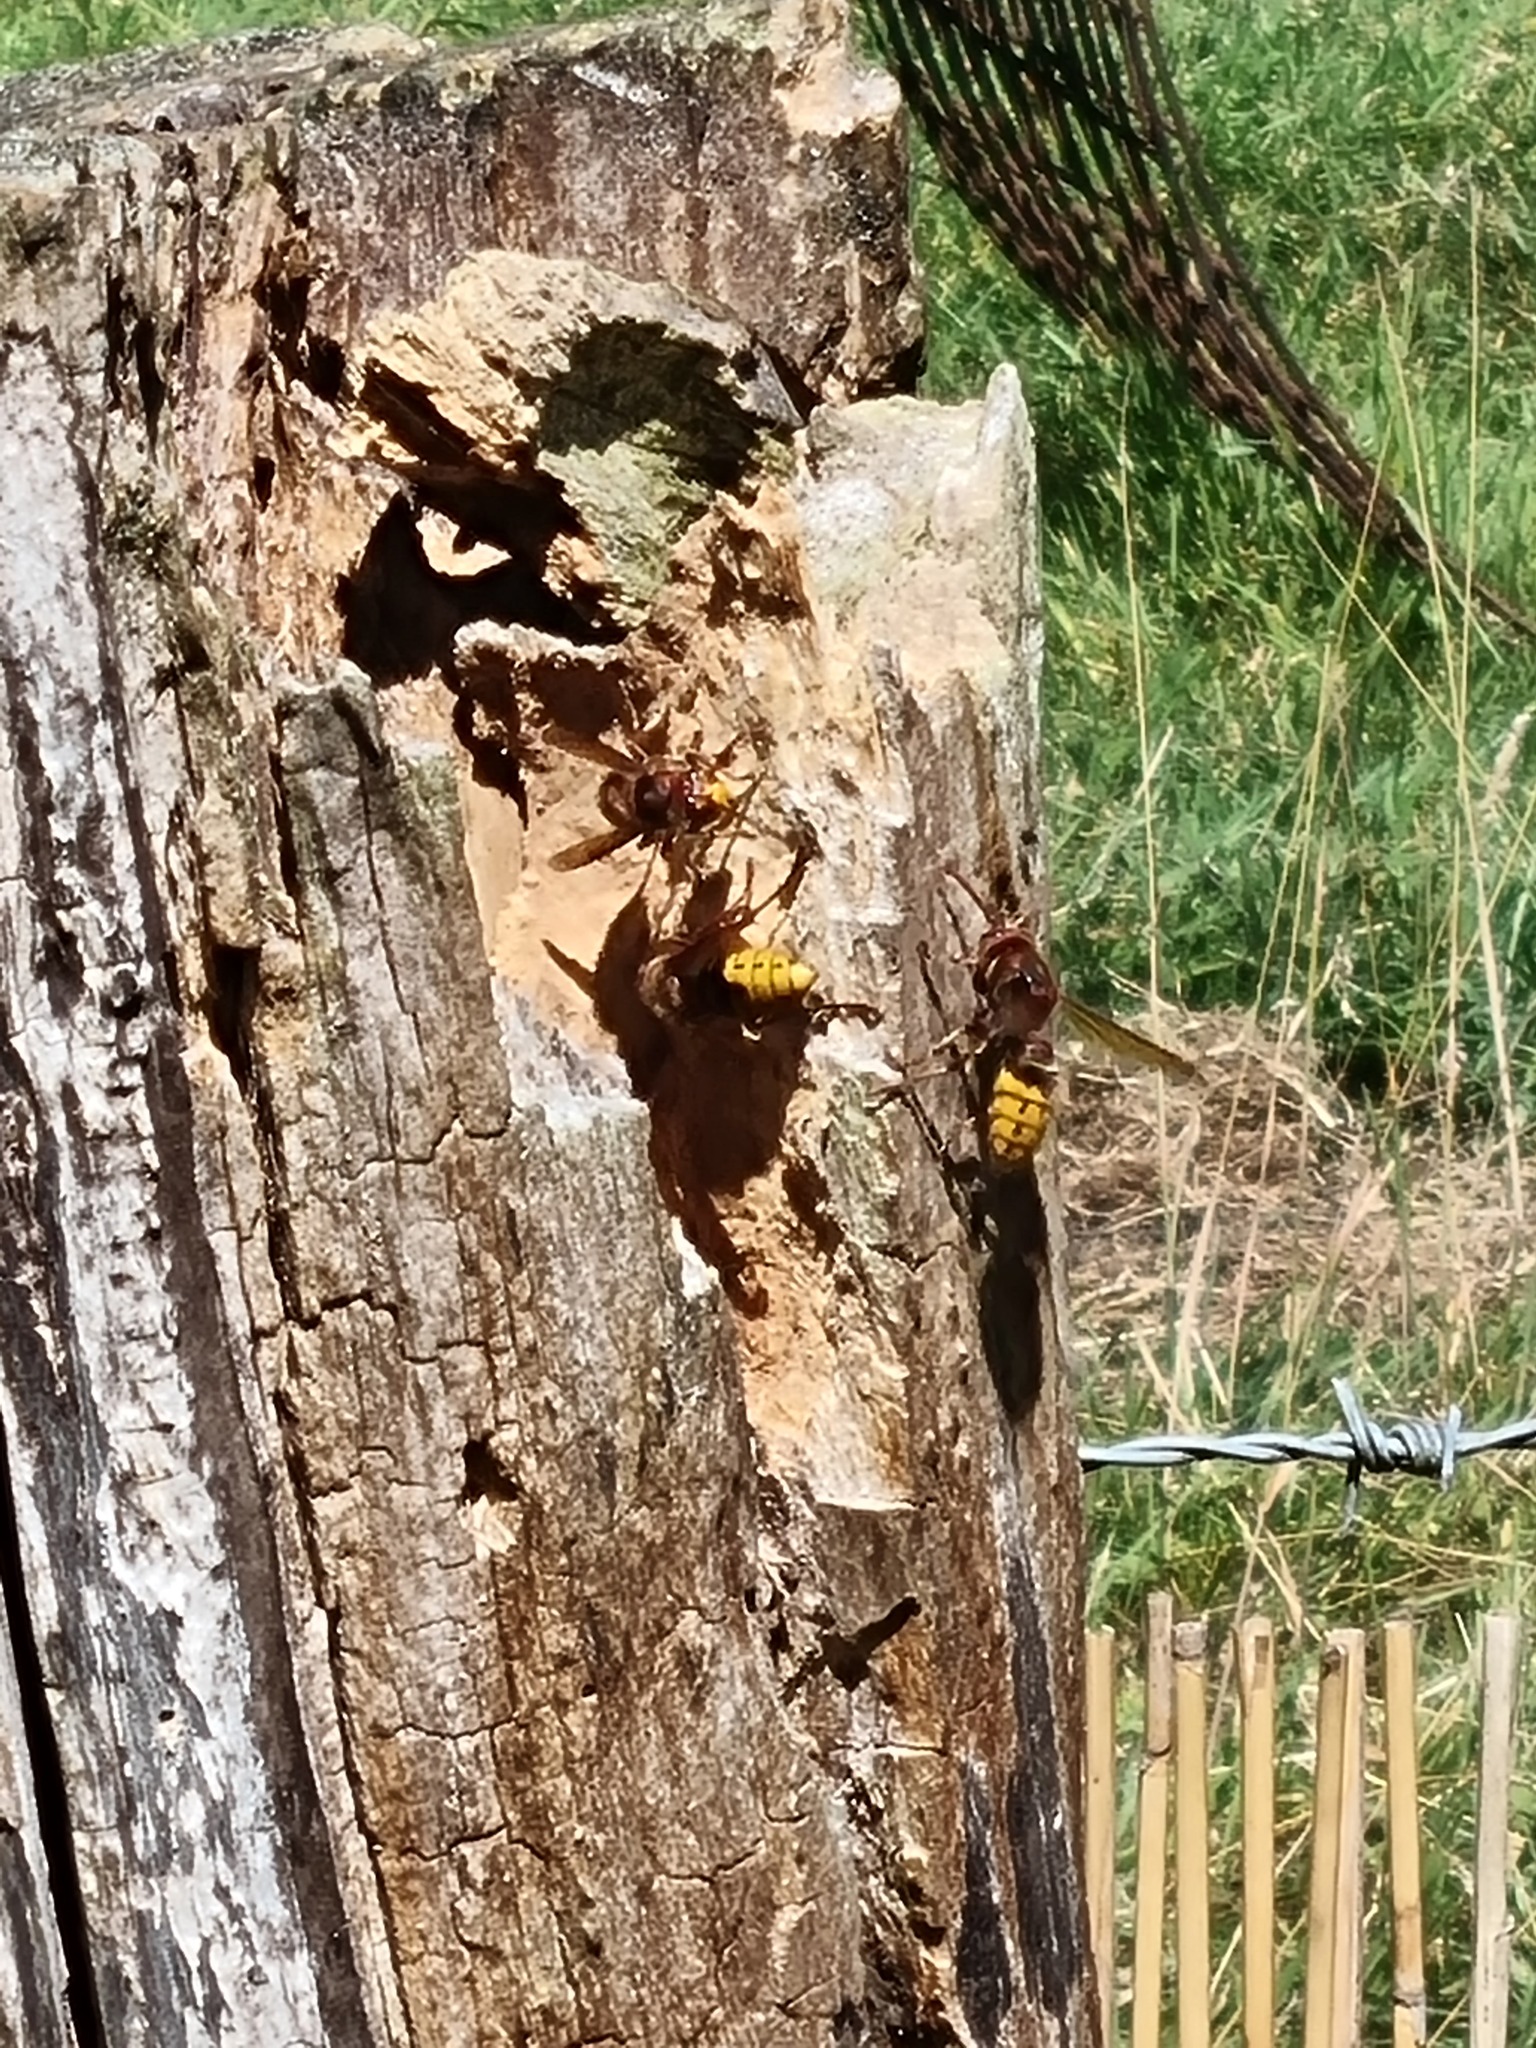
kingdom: Animalia
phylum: Arthropoda
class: Insecta
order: Hymenoptera
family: Vespidae
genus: Vespa
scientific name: Vespa crabro
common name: Hornet
